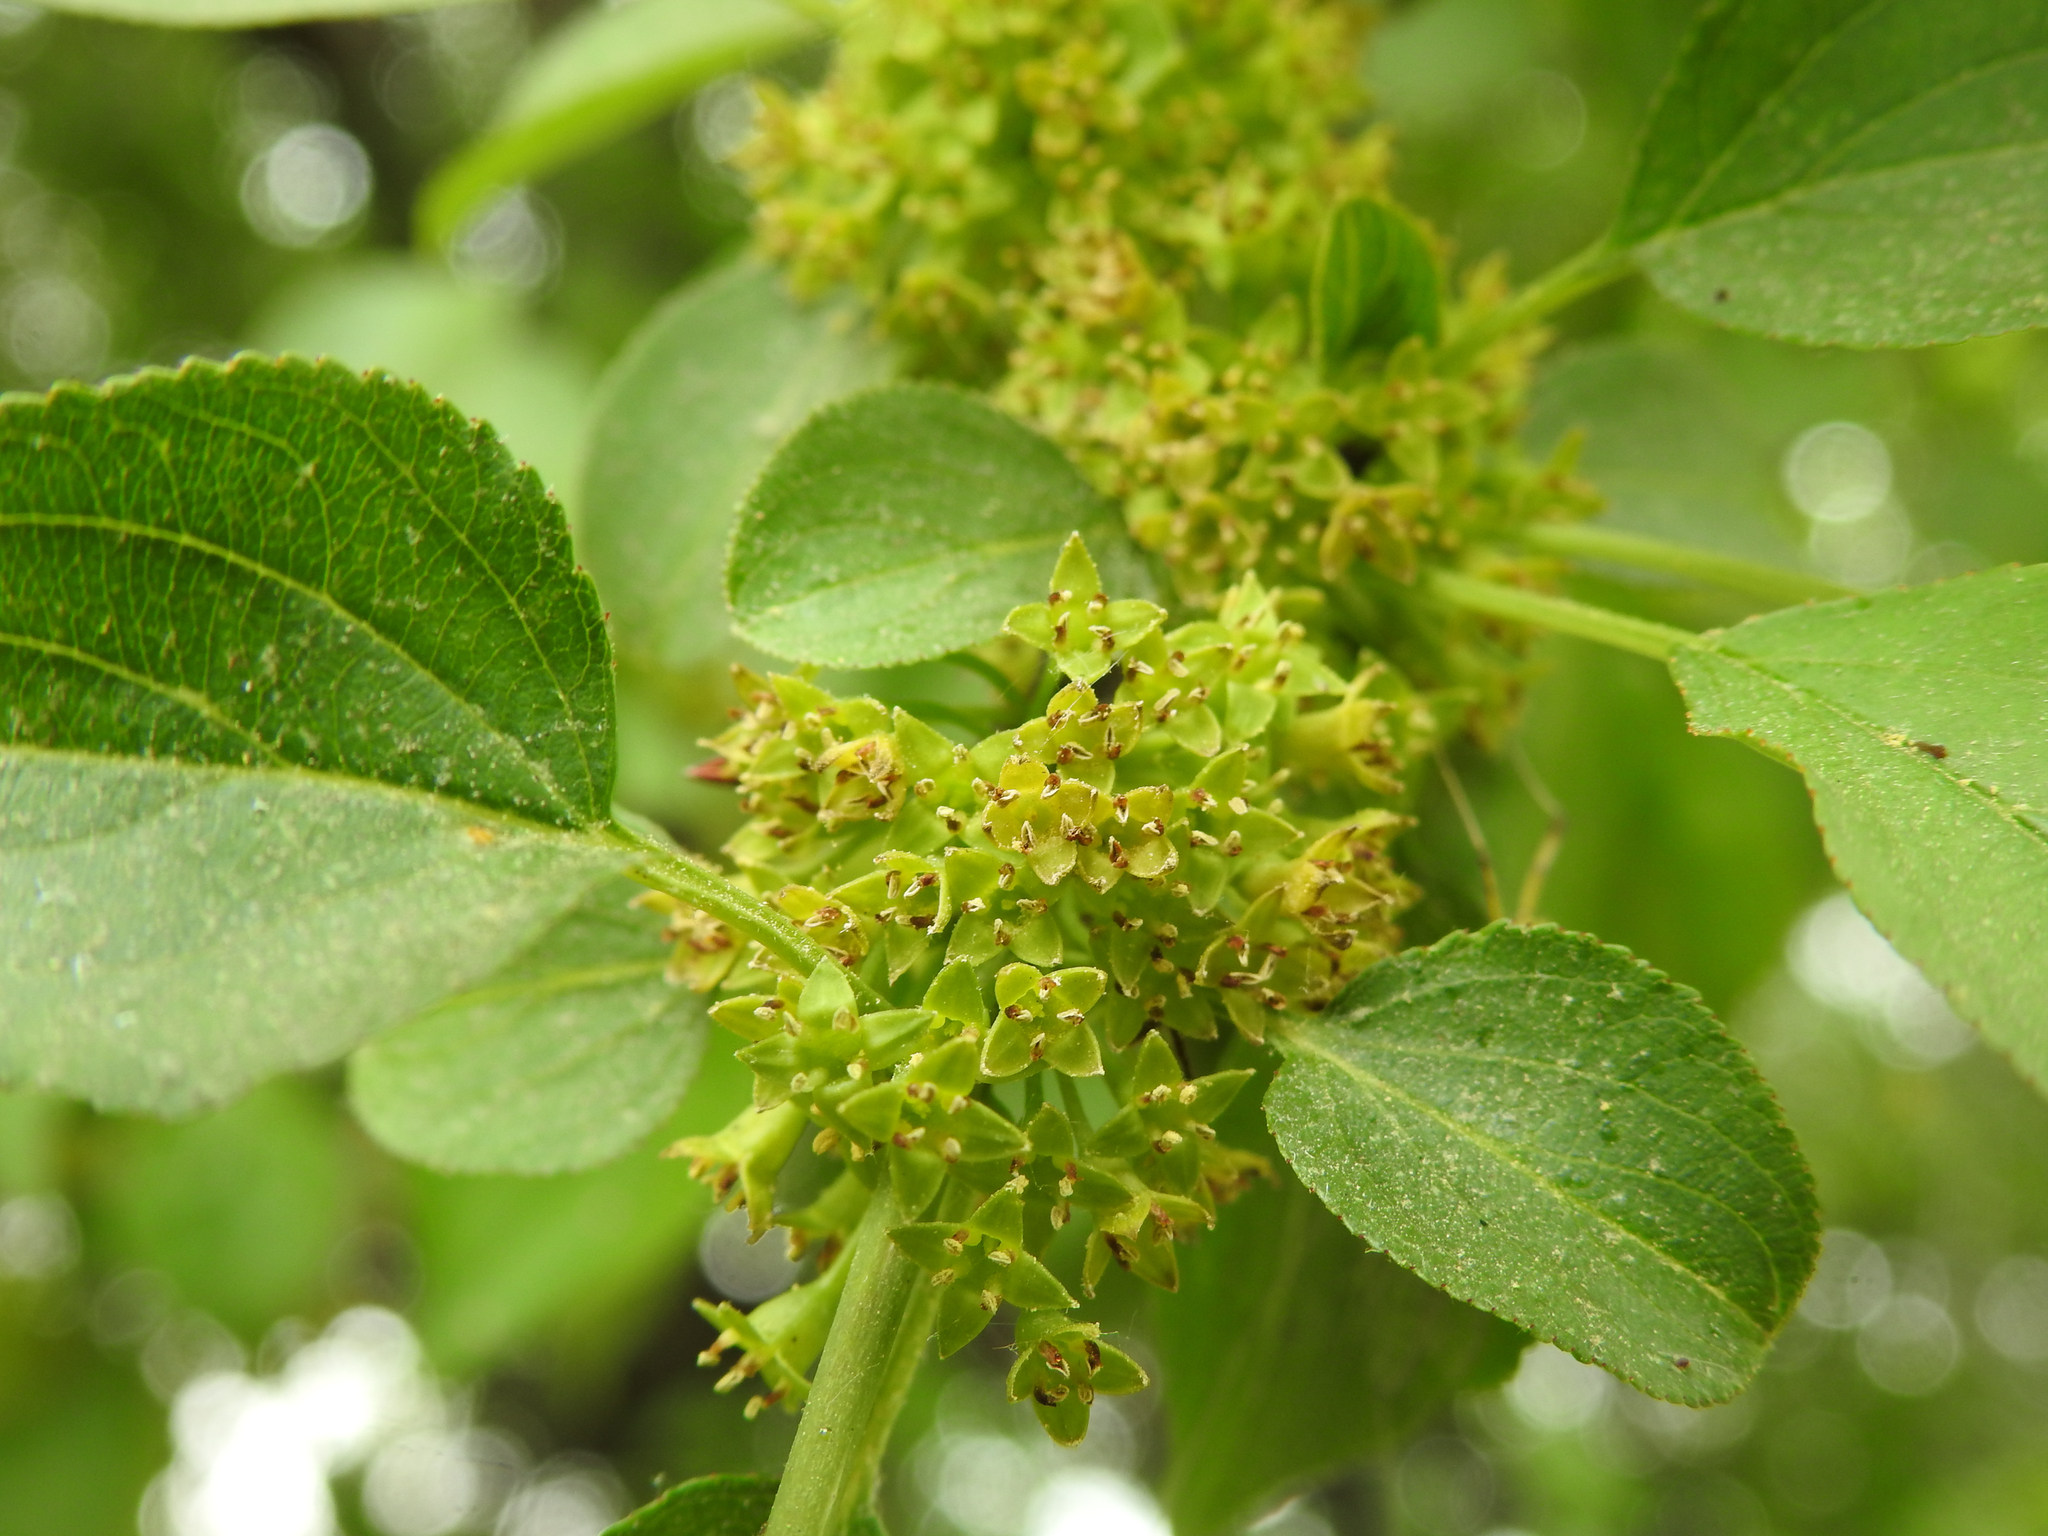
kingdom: Plantae
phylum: Tracheophyta
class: Magnoliopsida
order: Rosales
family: Rhamnaceae
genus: Rhamnus
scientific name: Rhamnus cathartica
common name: Common buckthorn
